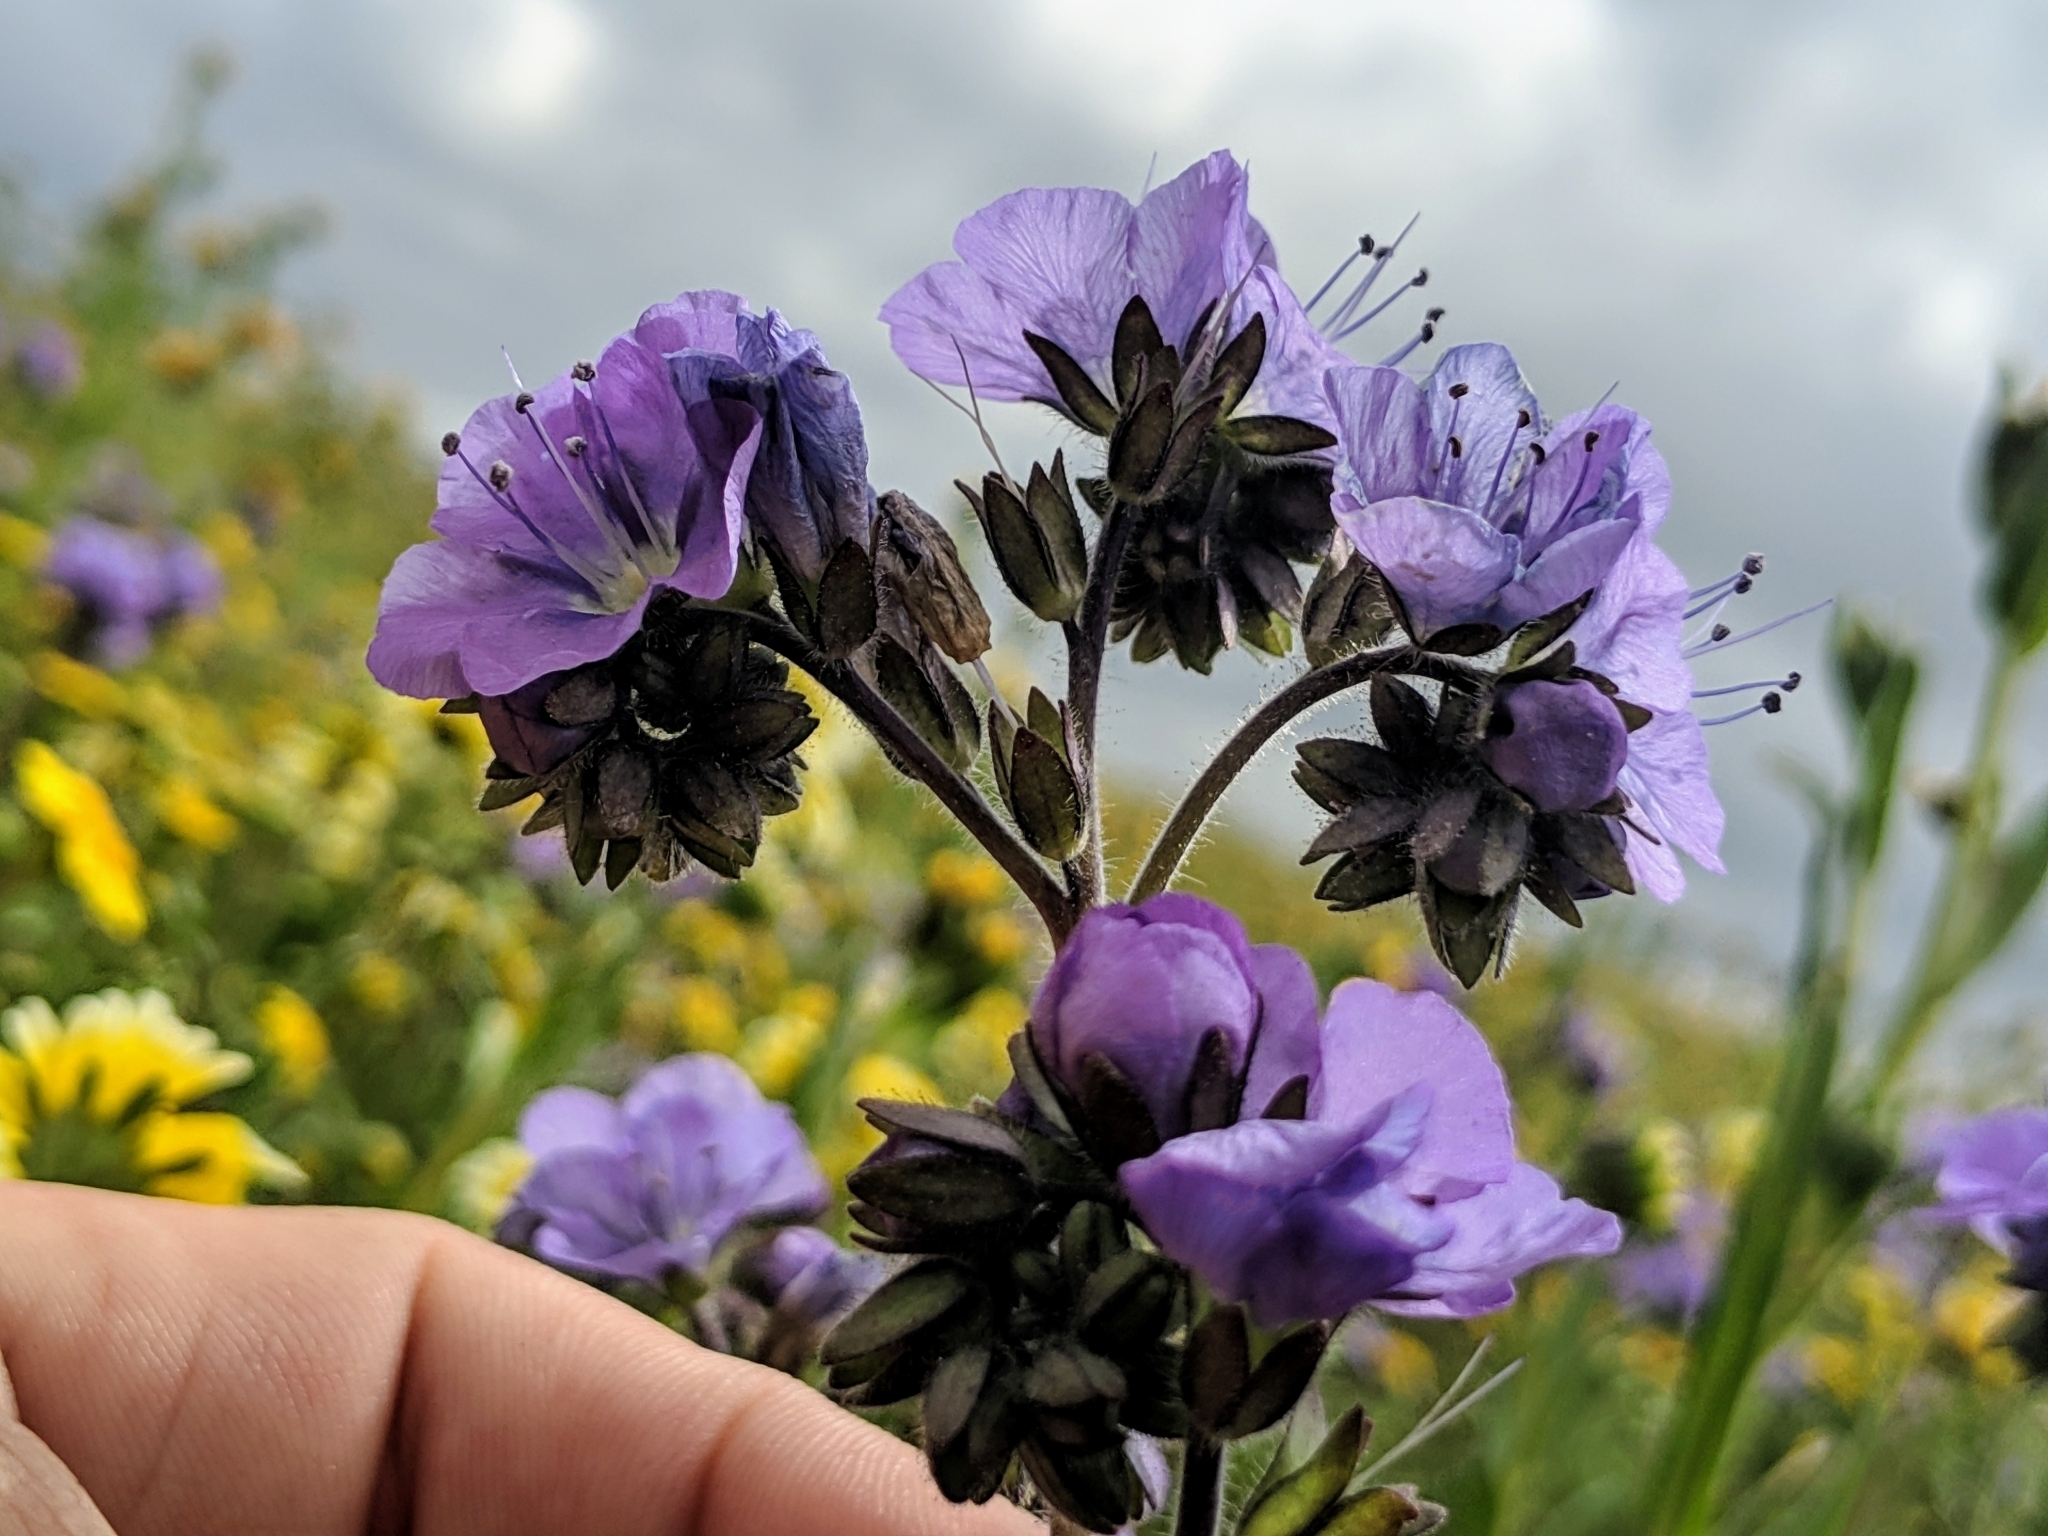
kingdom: Plantae
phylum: Tracheophyta
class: Magnoliopsida
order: Boraginales
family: Hydrophyllaceae
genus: Phacelia
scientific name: Phacelia ciliata
